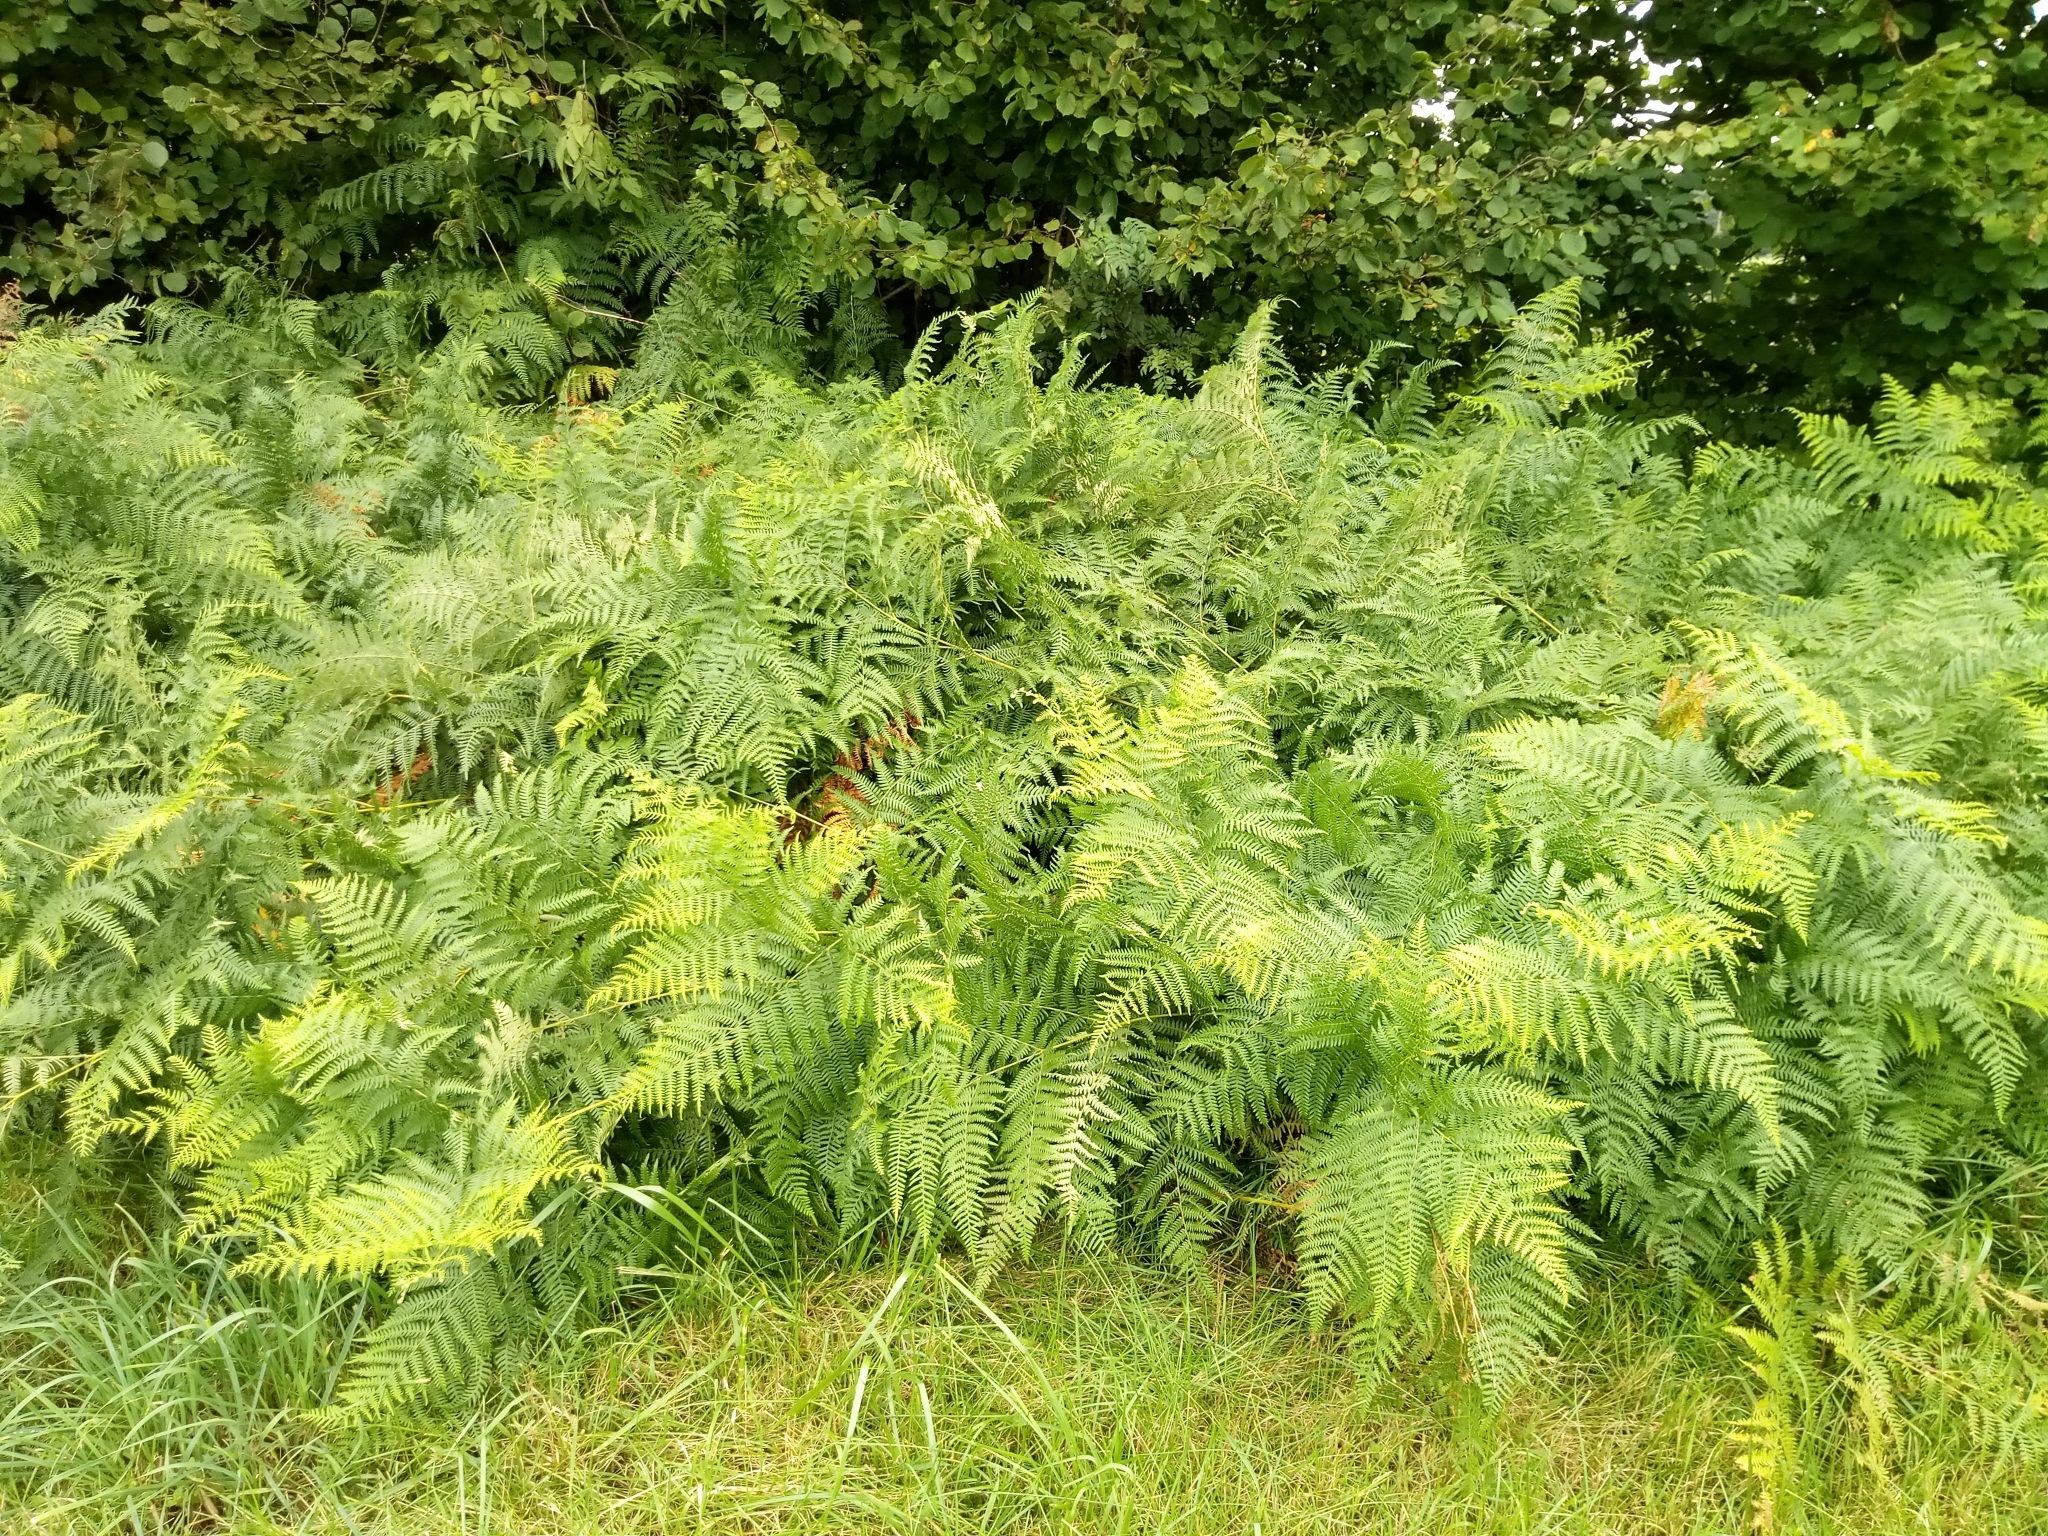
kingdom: Plantae
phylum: Tracheophyta
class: Polypodiopsida
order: Polypodiales
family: Dennstaedtiaceae
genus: Pteridium
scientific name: Pteridium aquilinum
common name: Bracken
